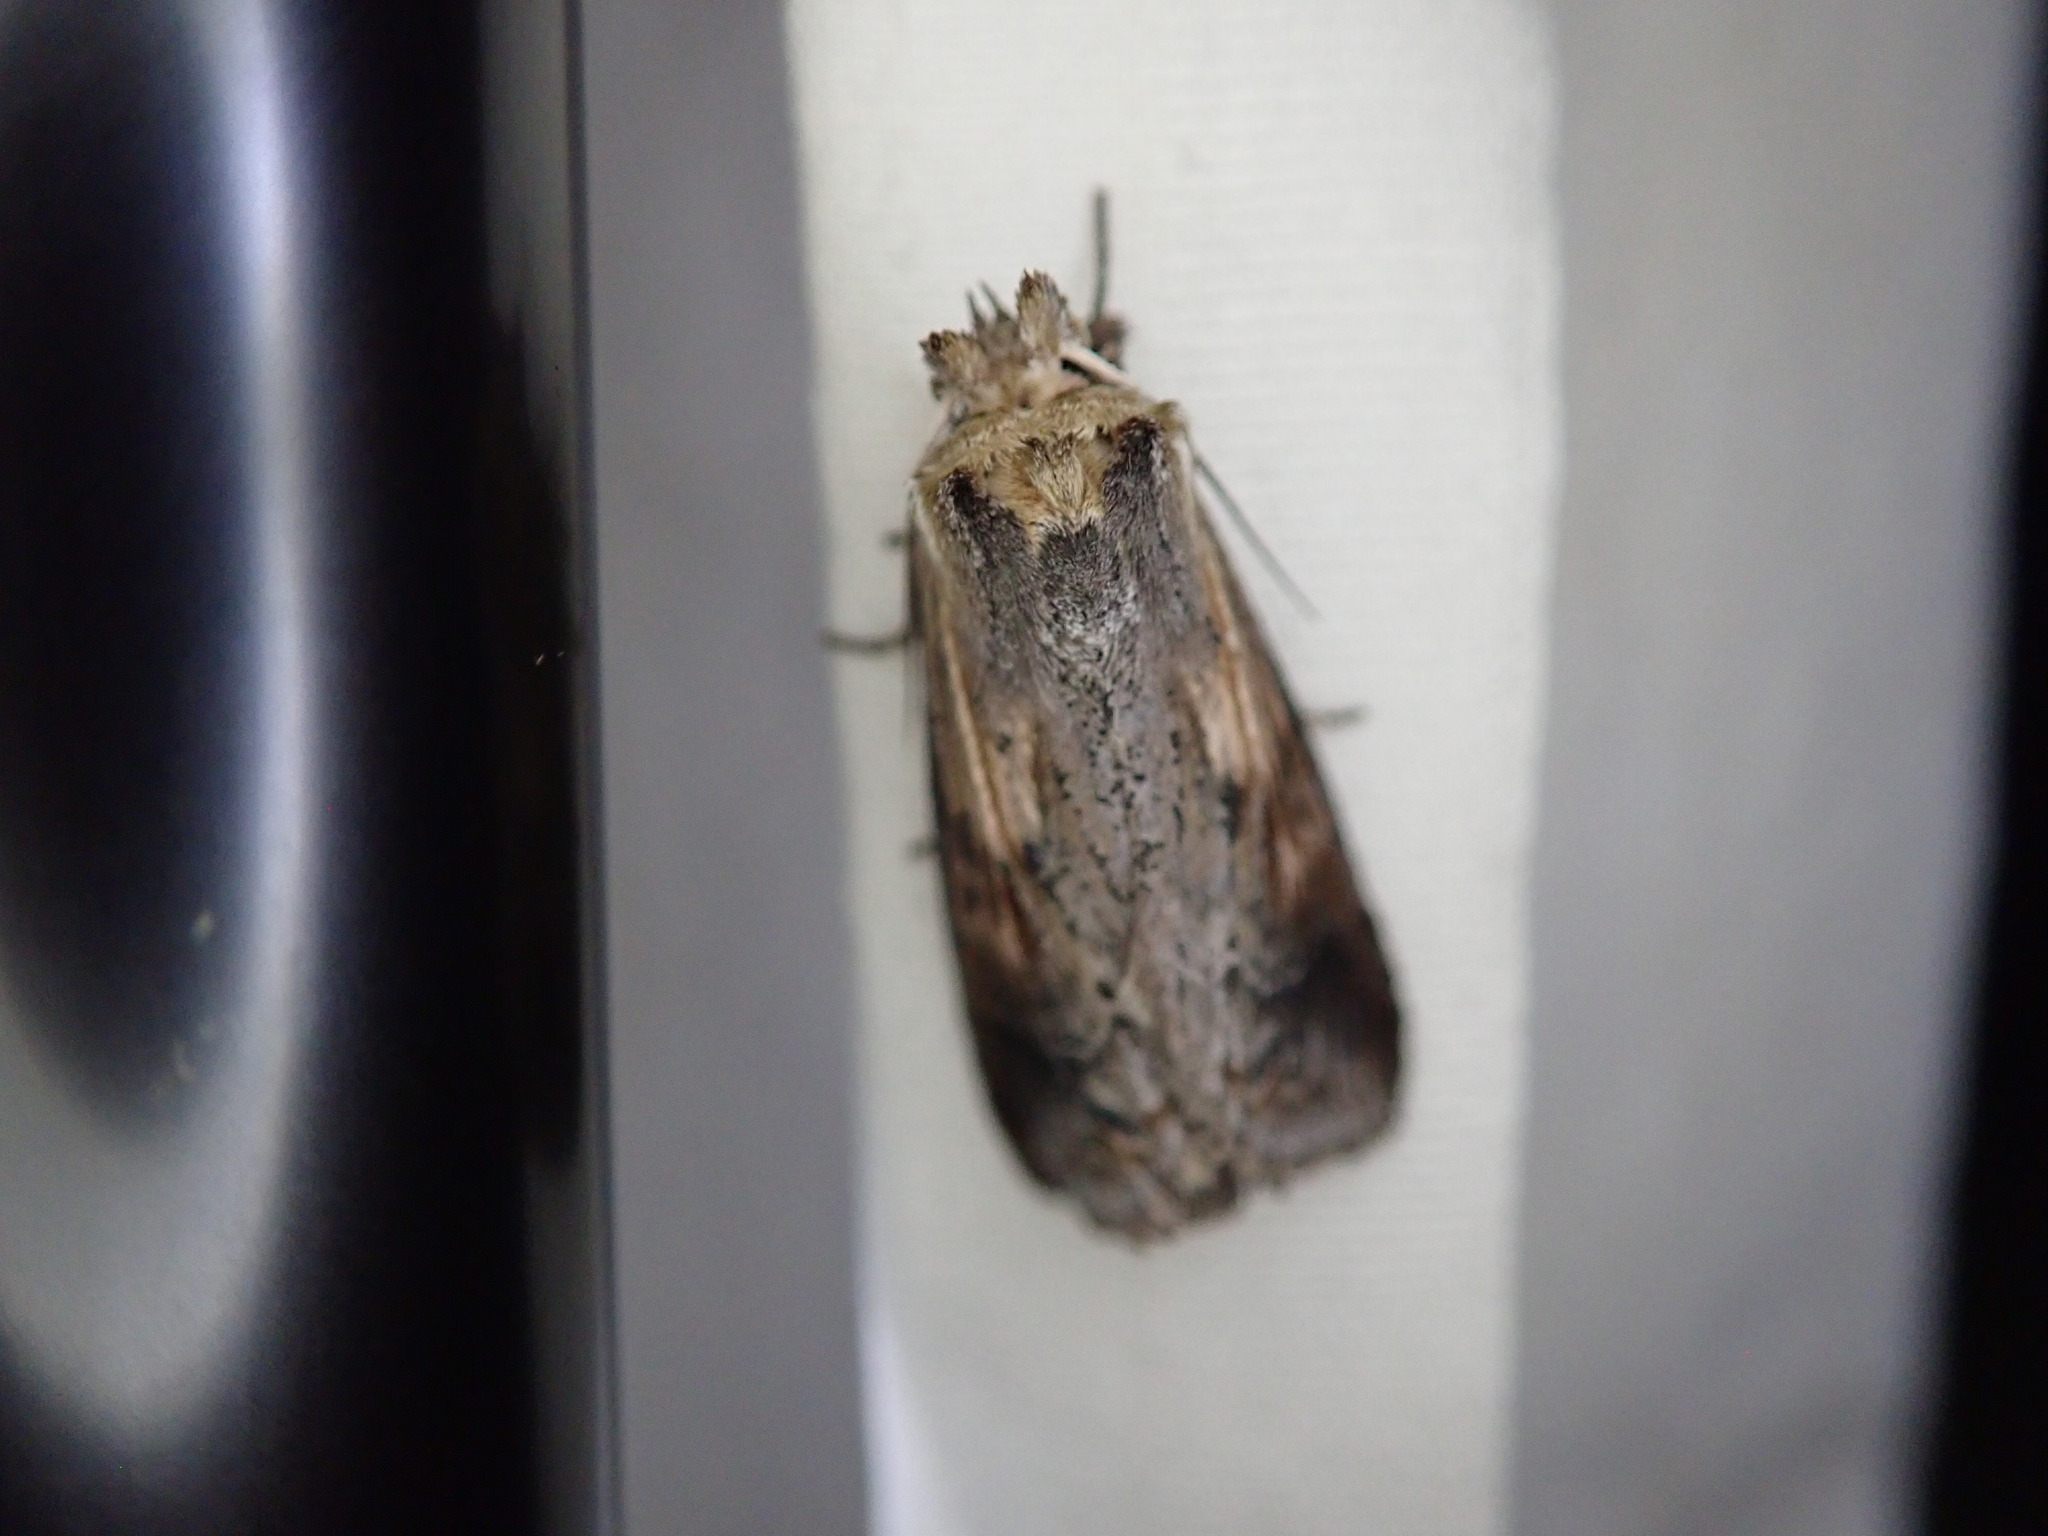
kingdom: Animalia
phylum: Arthropoda
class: Insecta
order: Lepidoptera
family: Notodontidae
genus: Dasylophia
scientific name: Dasylophia anguina
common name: Black-spotted prominent
